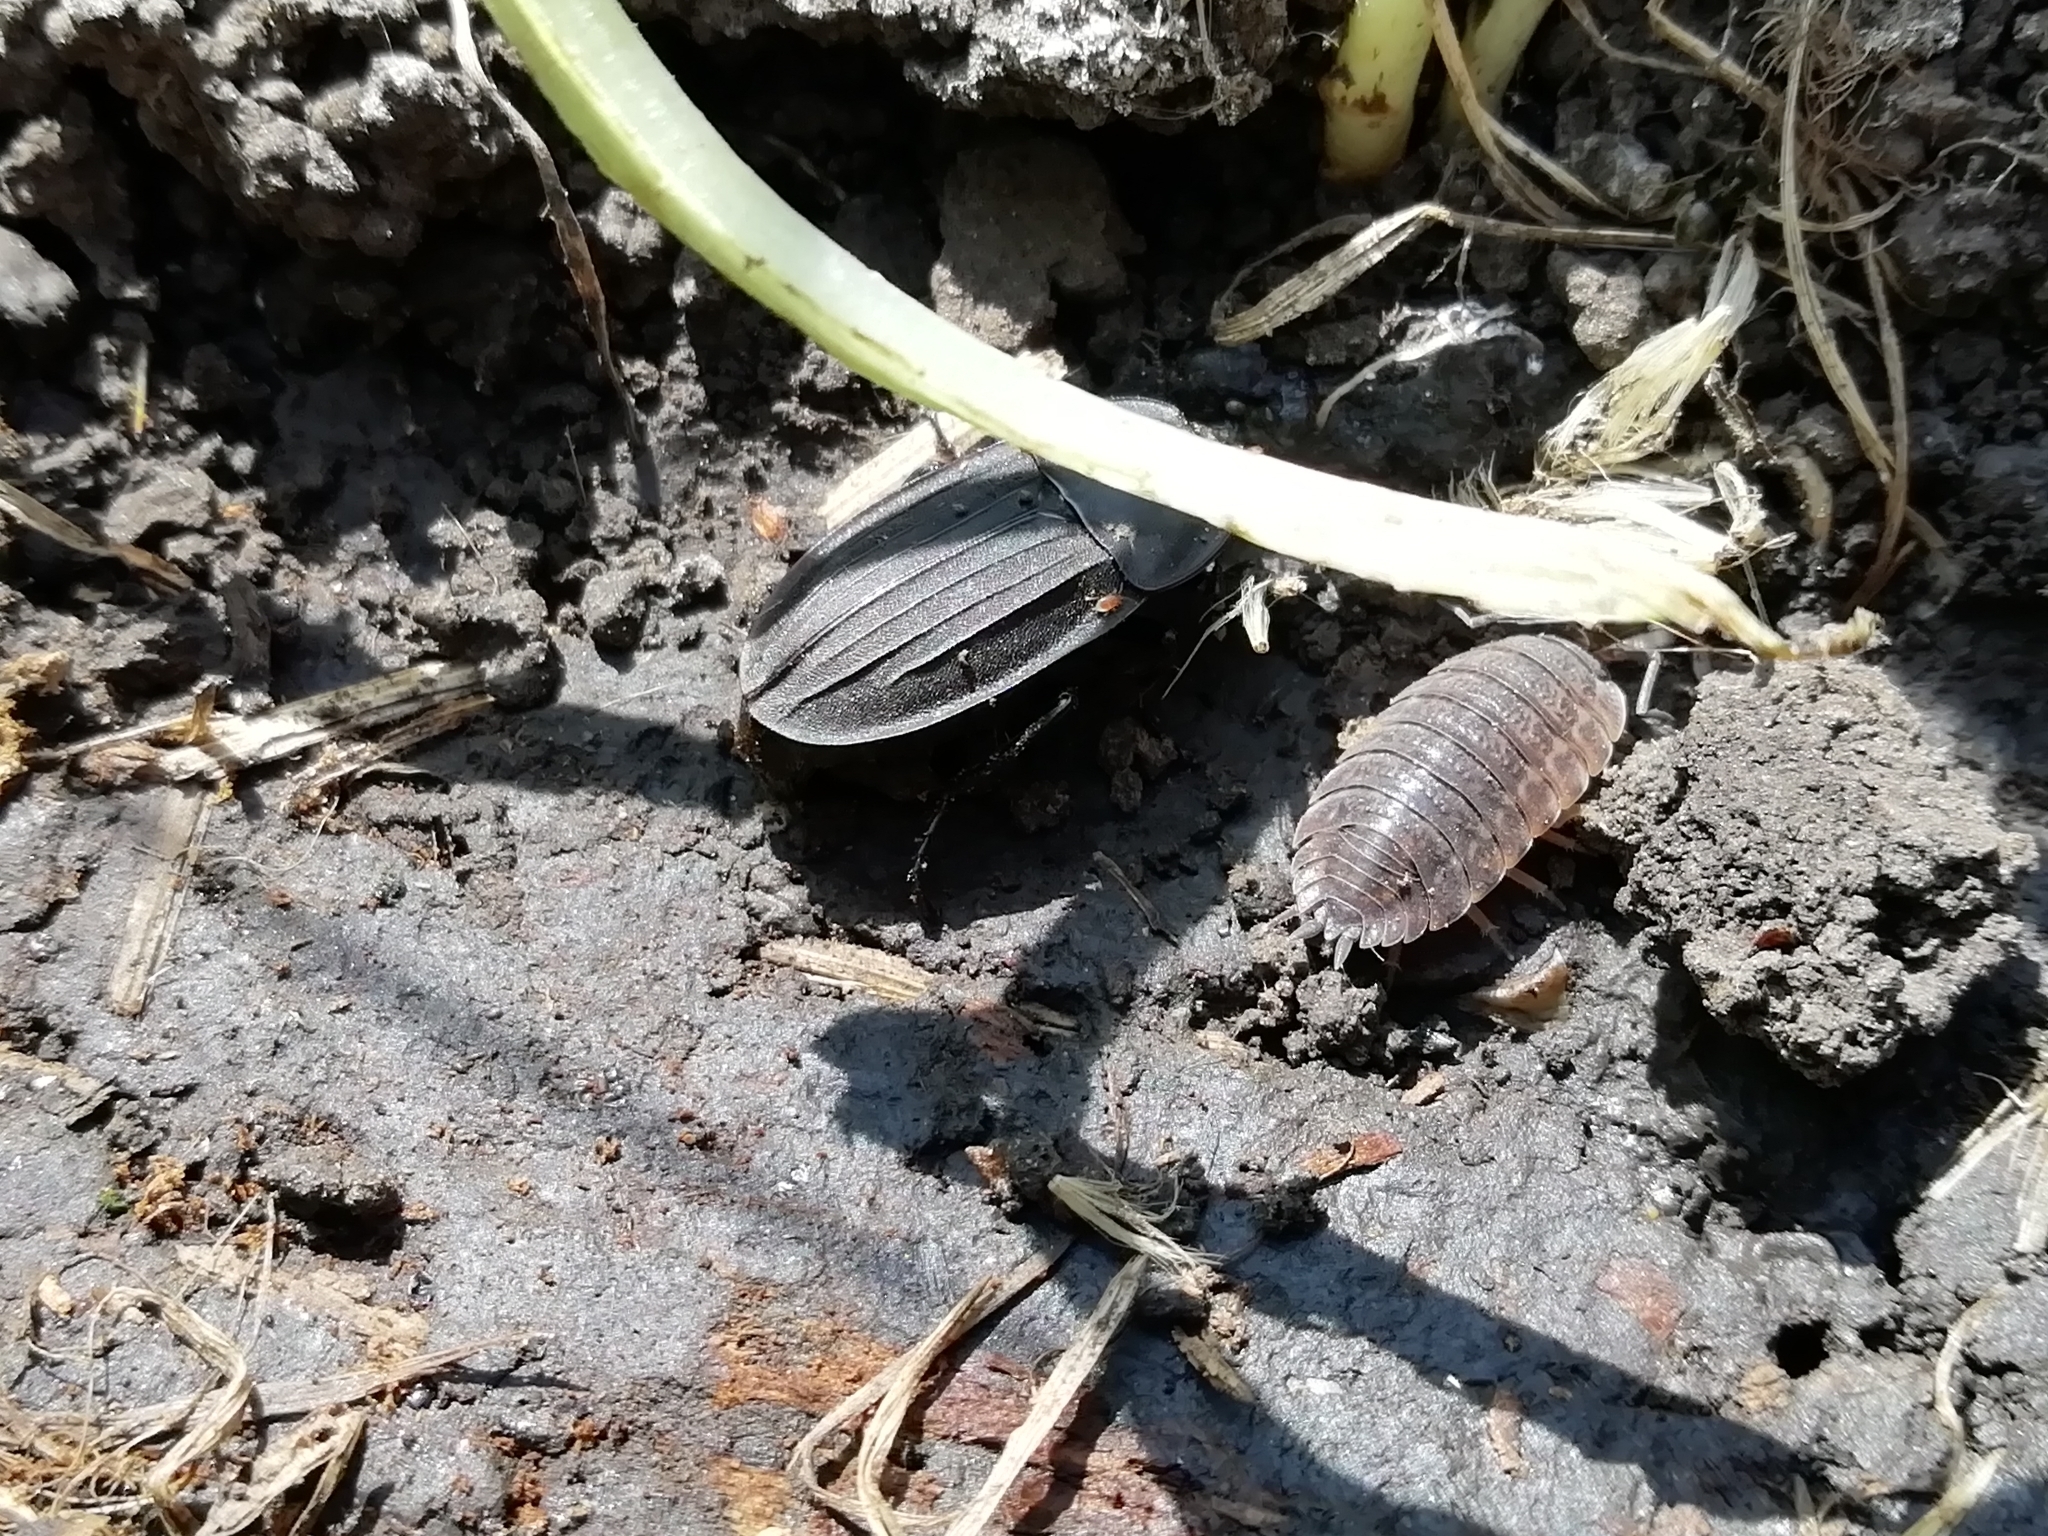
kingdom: Animalia
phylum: Arthropoda
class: Insecta
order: Coleoptera
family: Staphylinidae
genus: Silpha
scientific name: Silpha obscura
